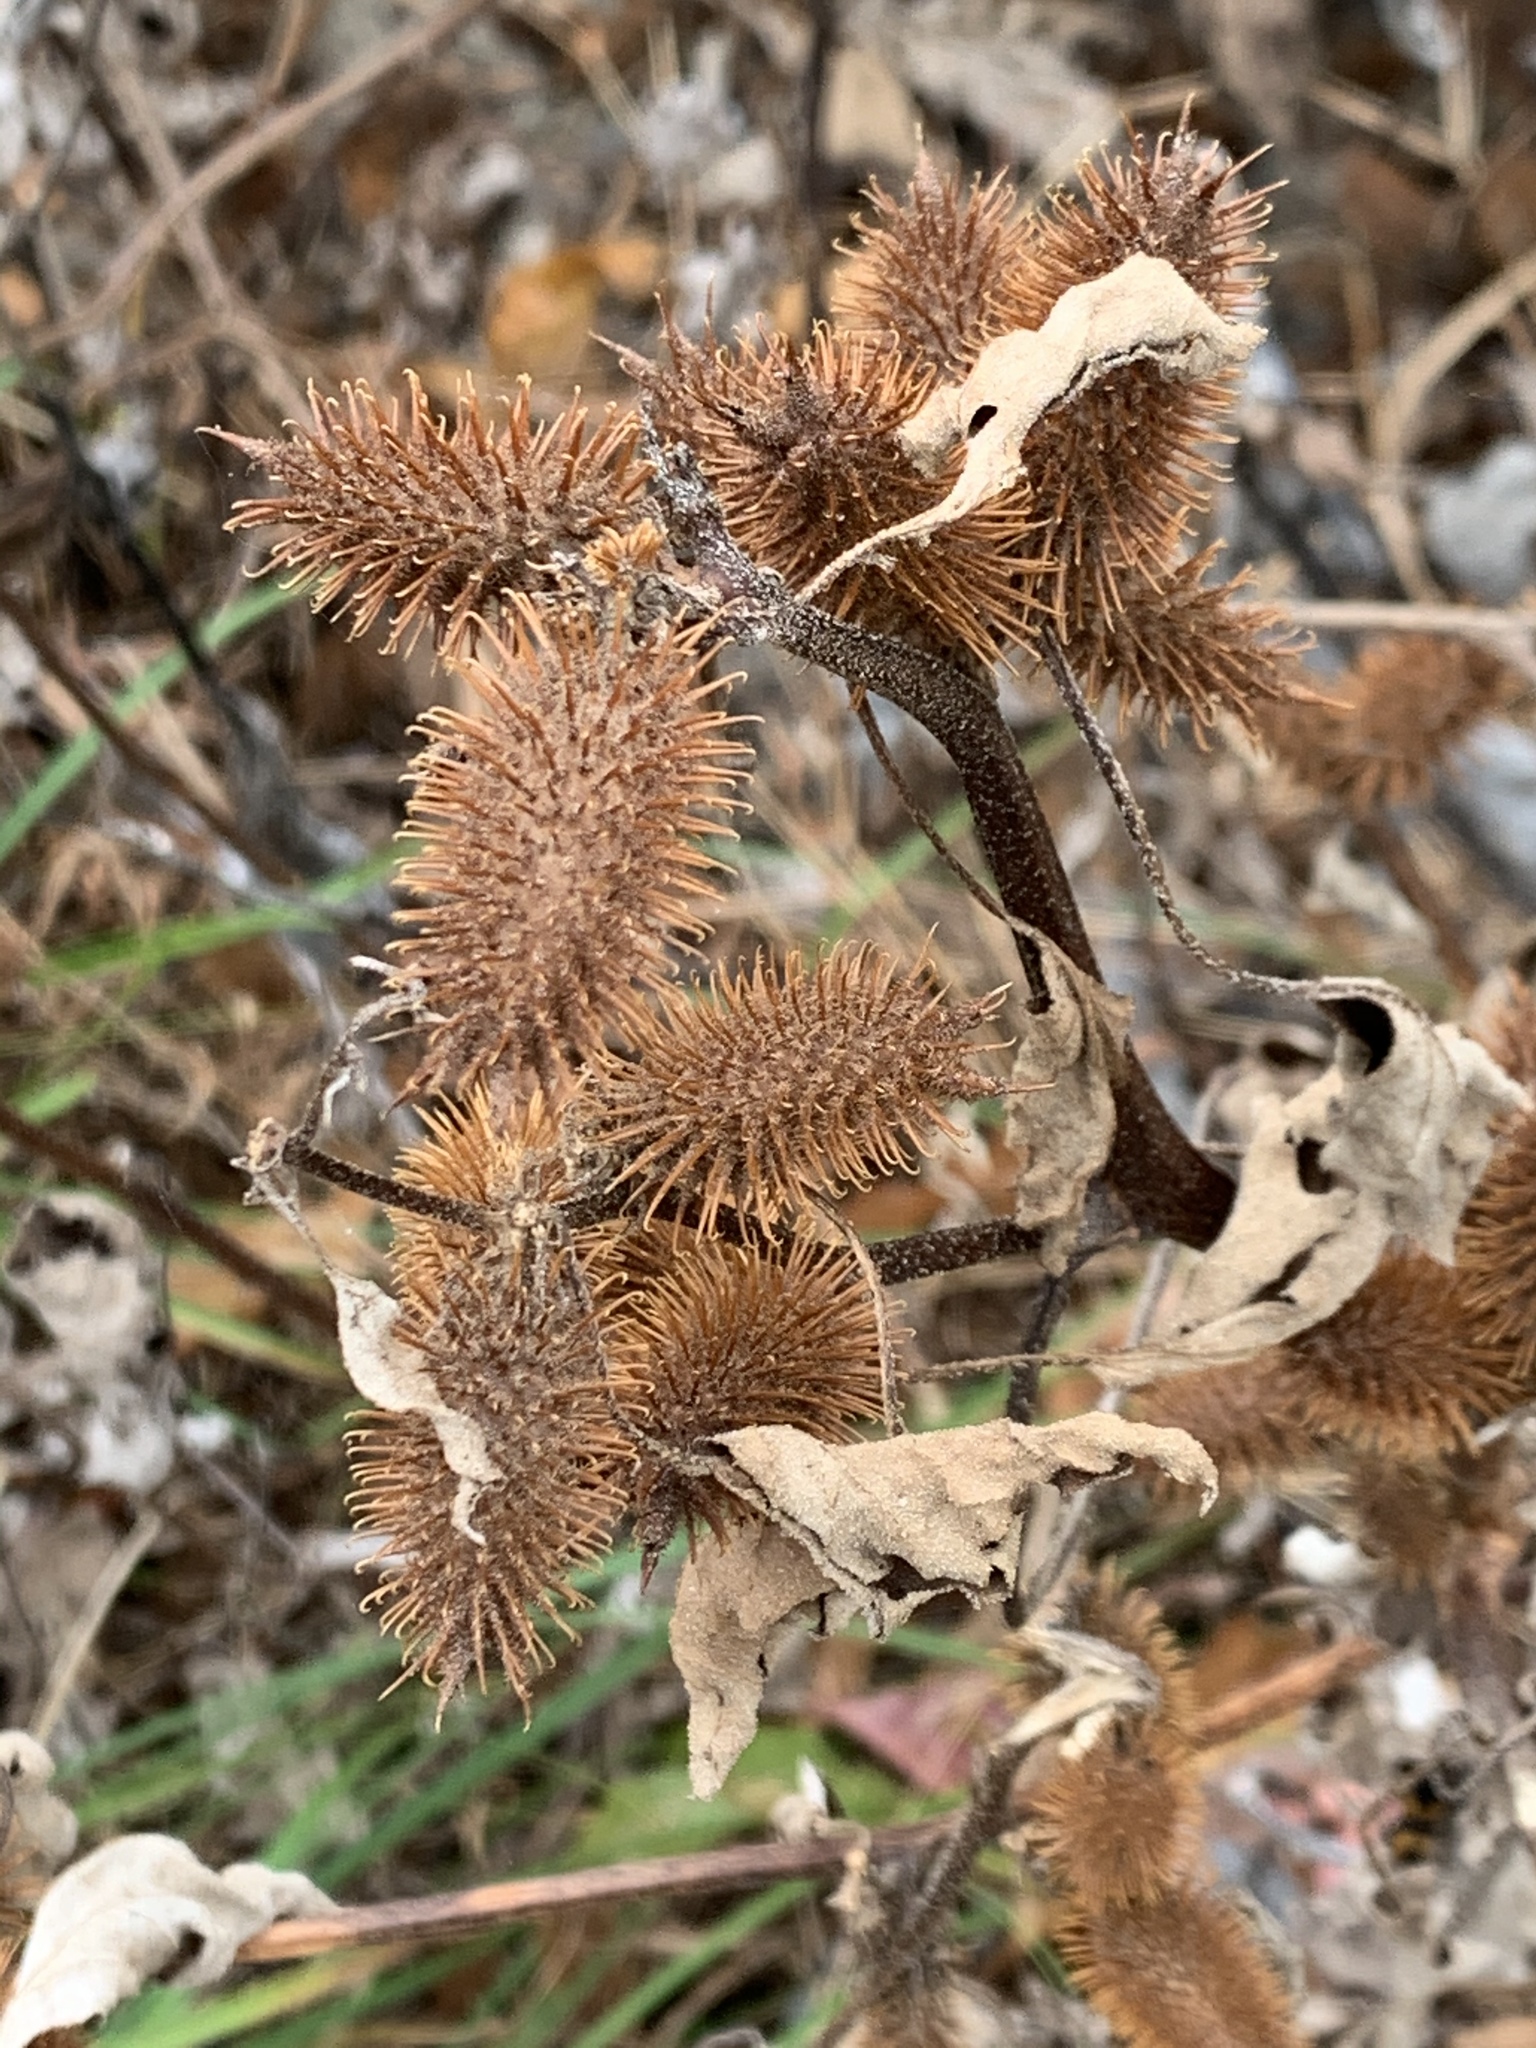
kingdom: Plantae
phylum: Tracheophyta
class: Magnoliopsida
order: Asterales
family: Asteraceae
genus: Xanthium
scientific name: Xanthium strumarium
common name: Rough cocklebur
